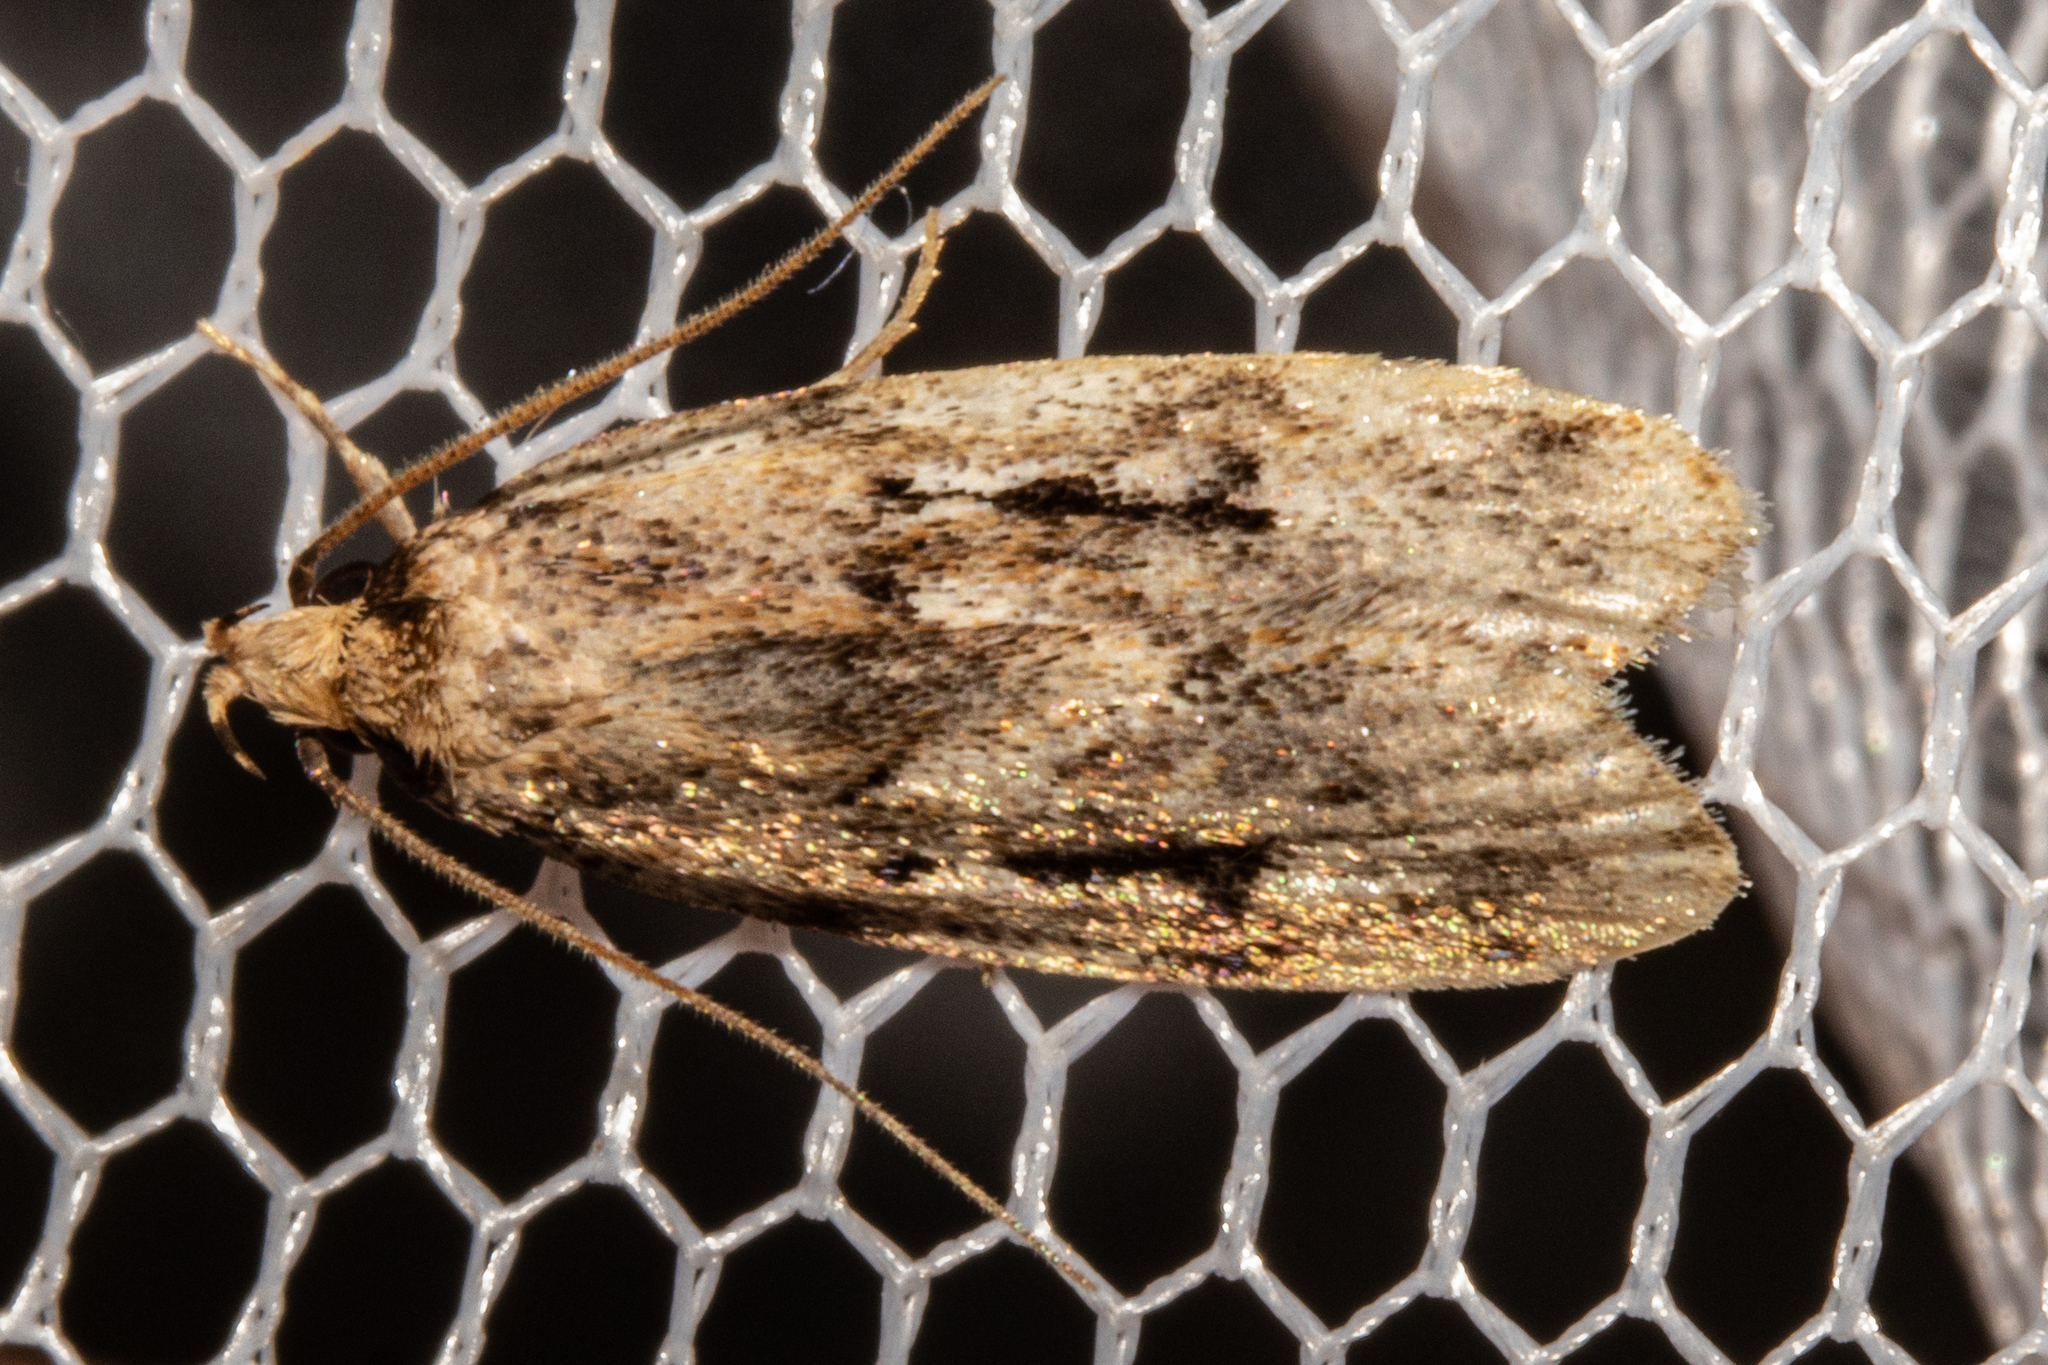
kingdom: Animalia
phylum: Arthropoda
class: Insecta
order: Lepidoptera
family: Oecophoridae
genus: Barea
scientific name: Barea exarcha
